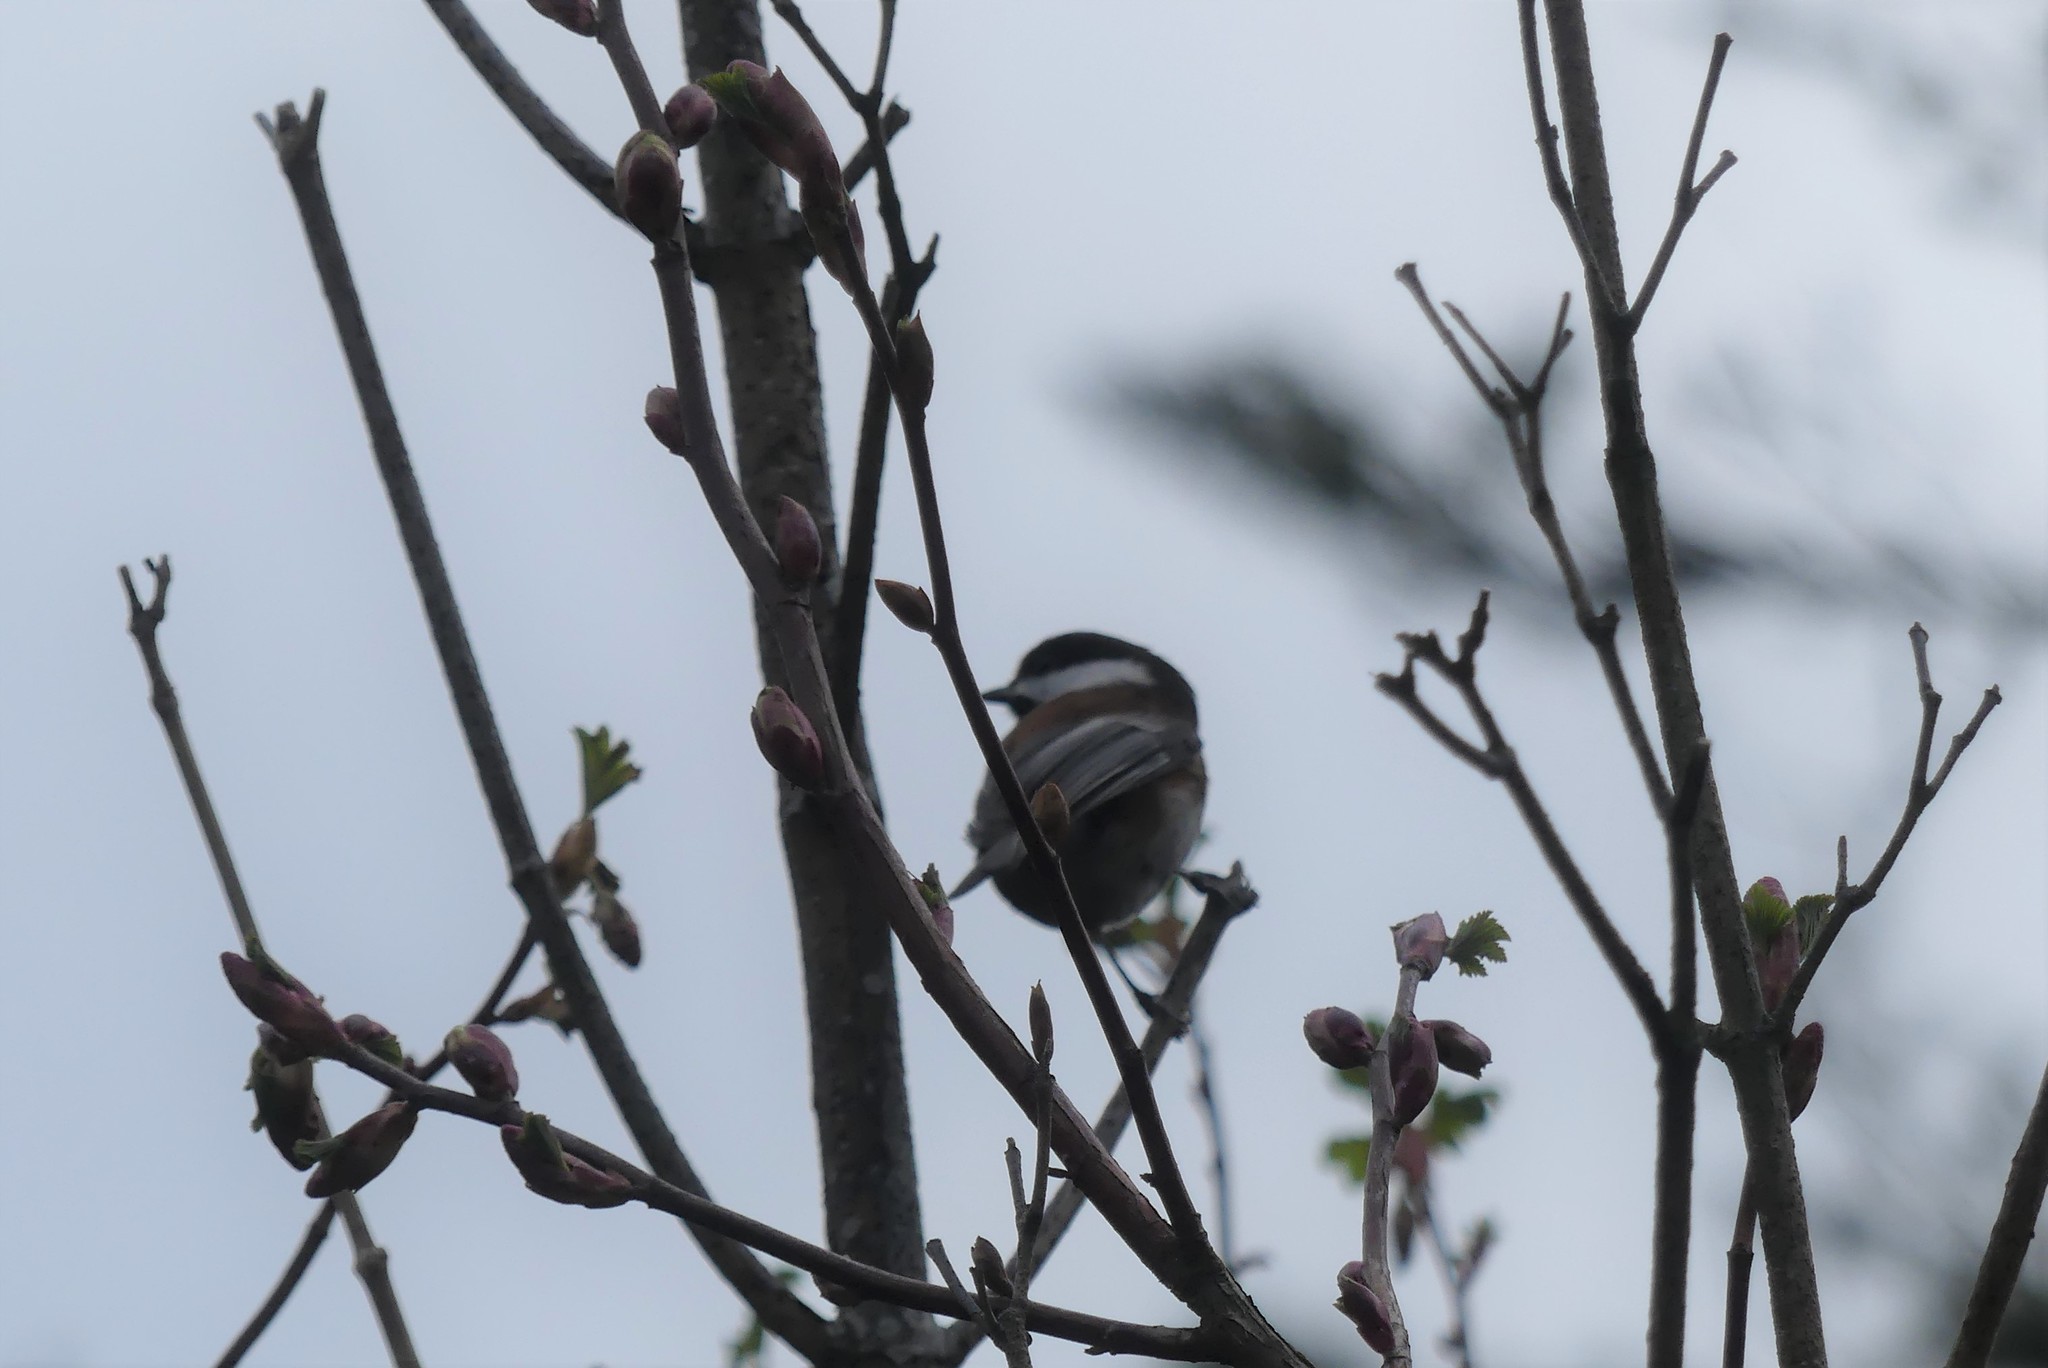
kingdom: Animalia
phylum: Chordata
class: Aves
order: Passeriformes
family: Paridae
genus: Poecile
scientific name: Poecile rufescens
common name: Chestnut-backed chickadee
